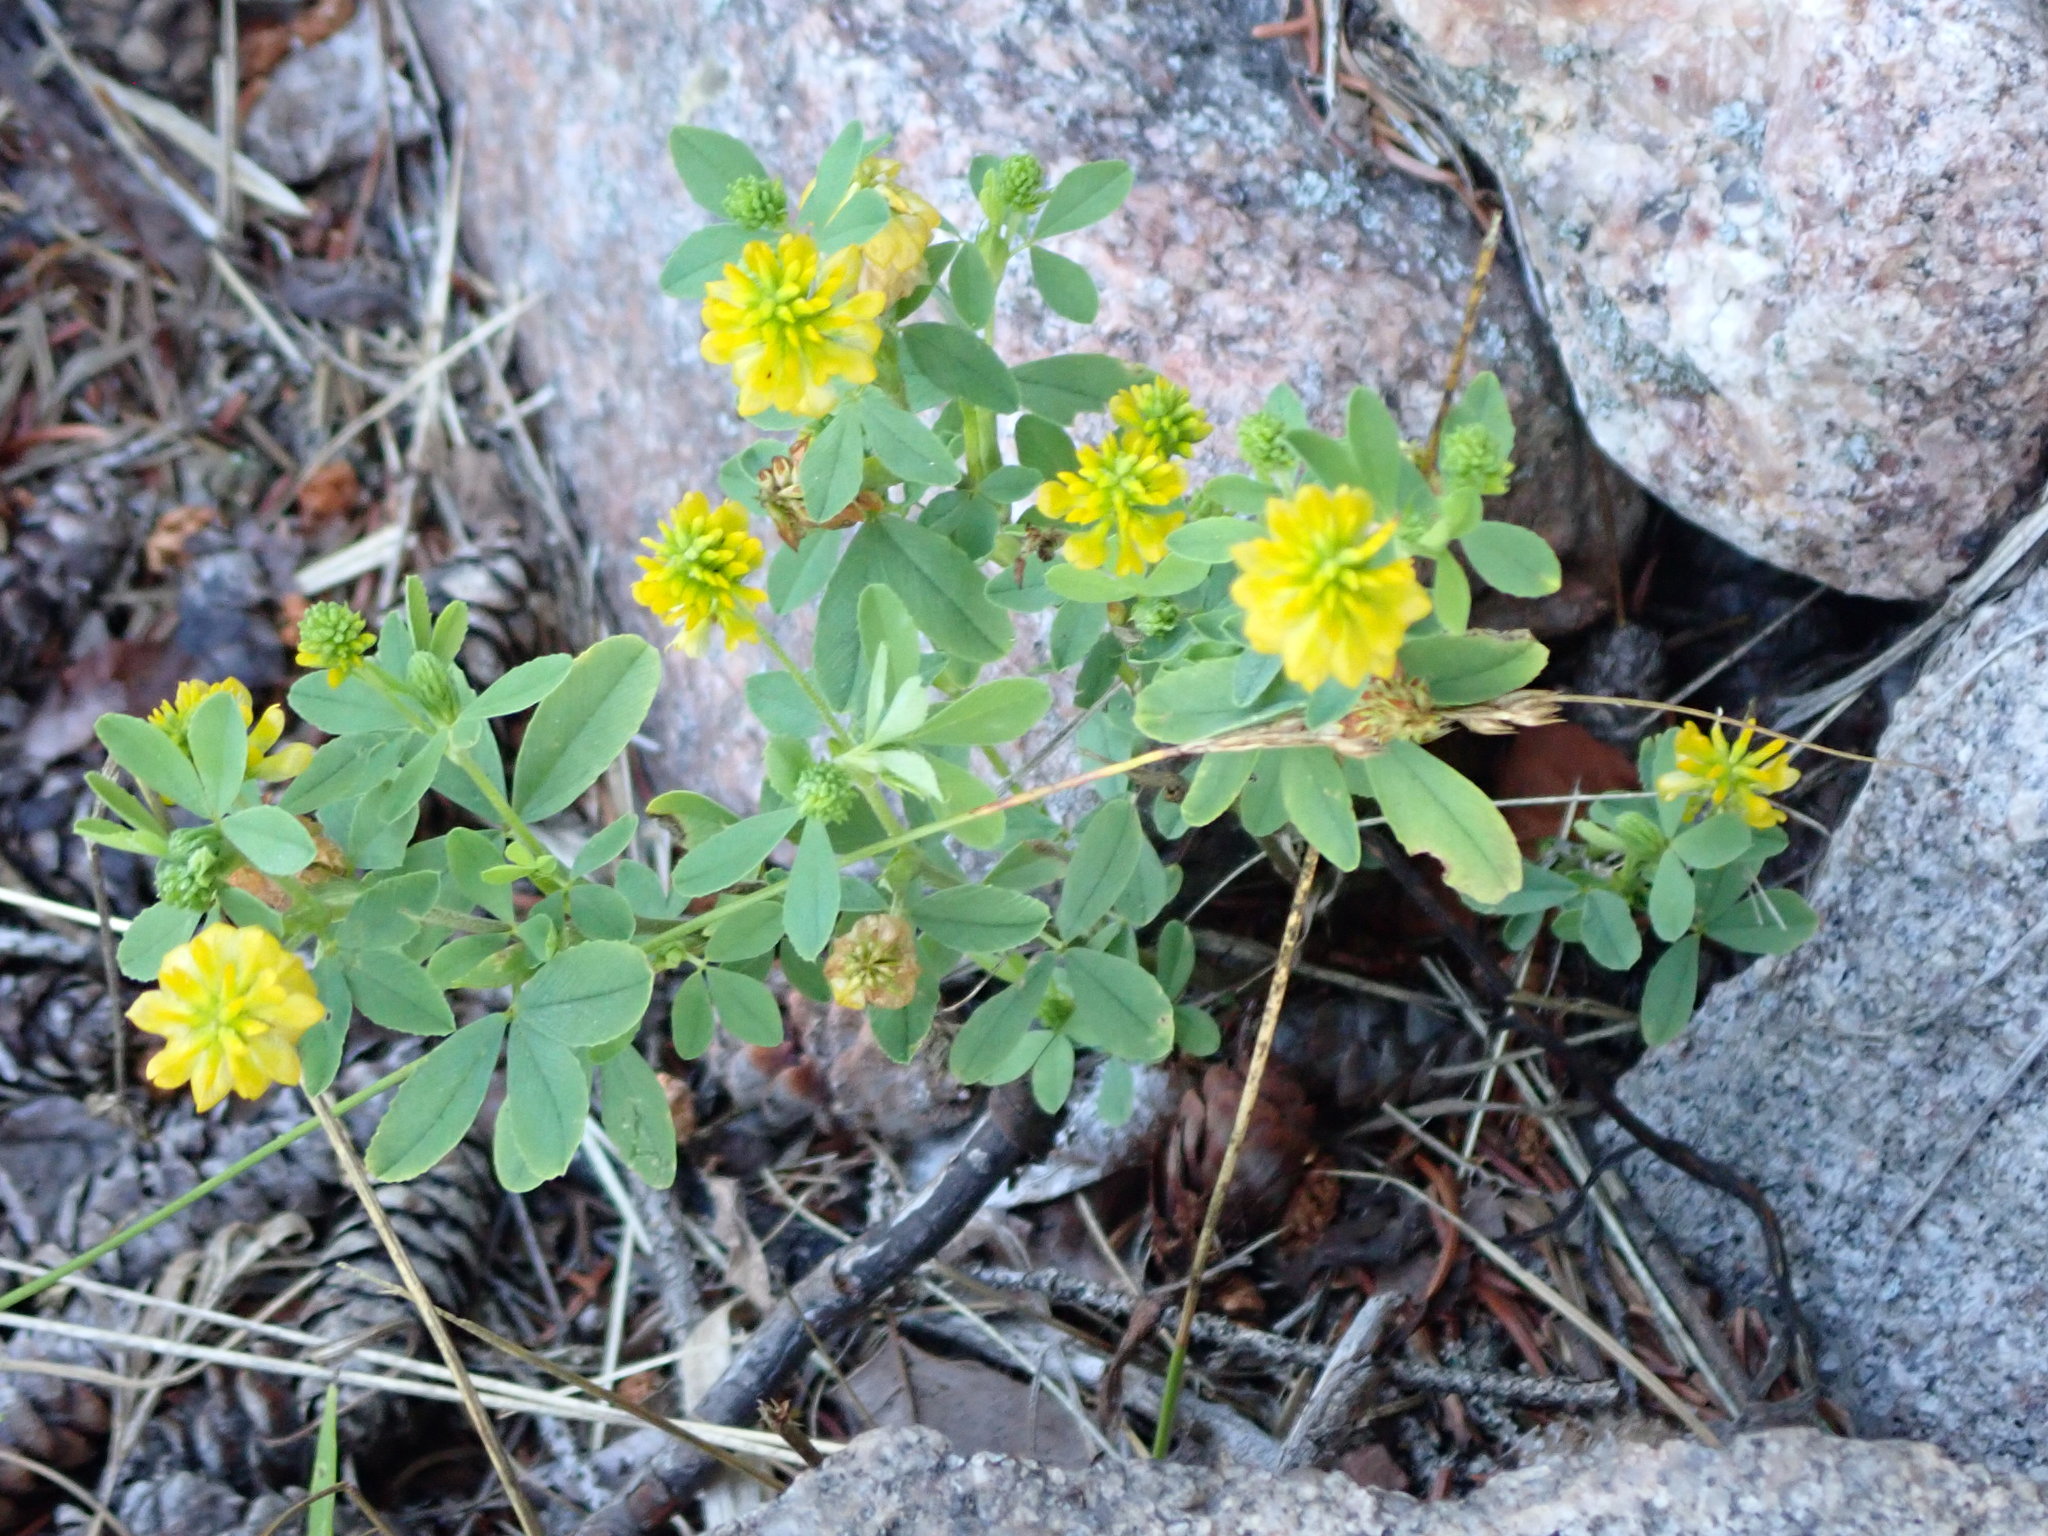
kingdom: Plantae
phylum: Tracheophyta
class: Magnoliopsida
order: Fabales
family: Fabaceae
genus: Trifolium
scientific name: Trifolium aureum
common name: Golden clover
